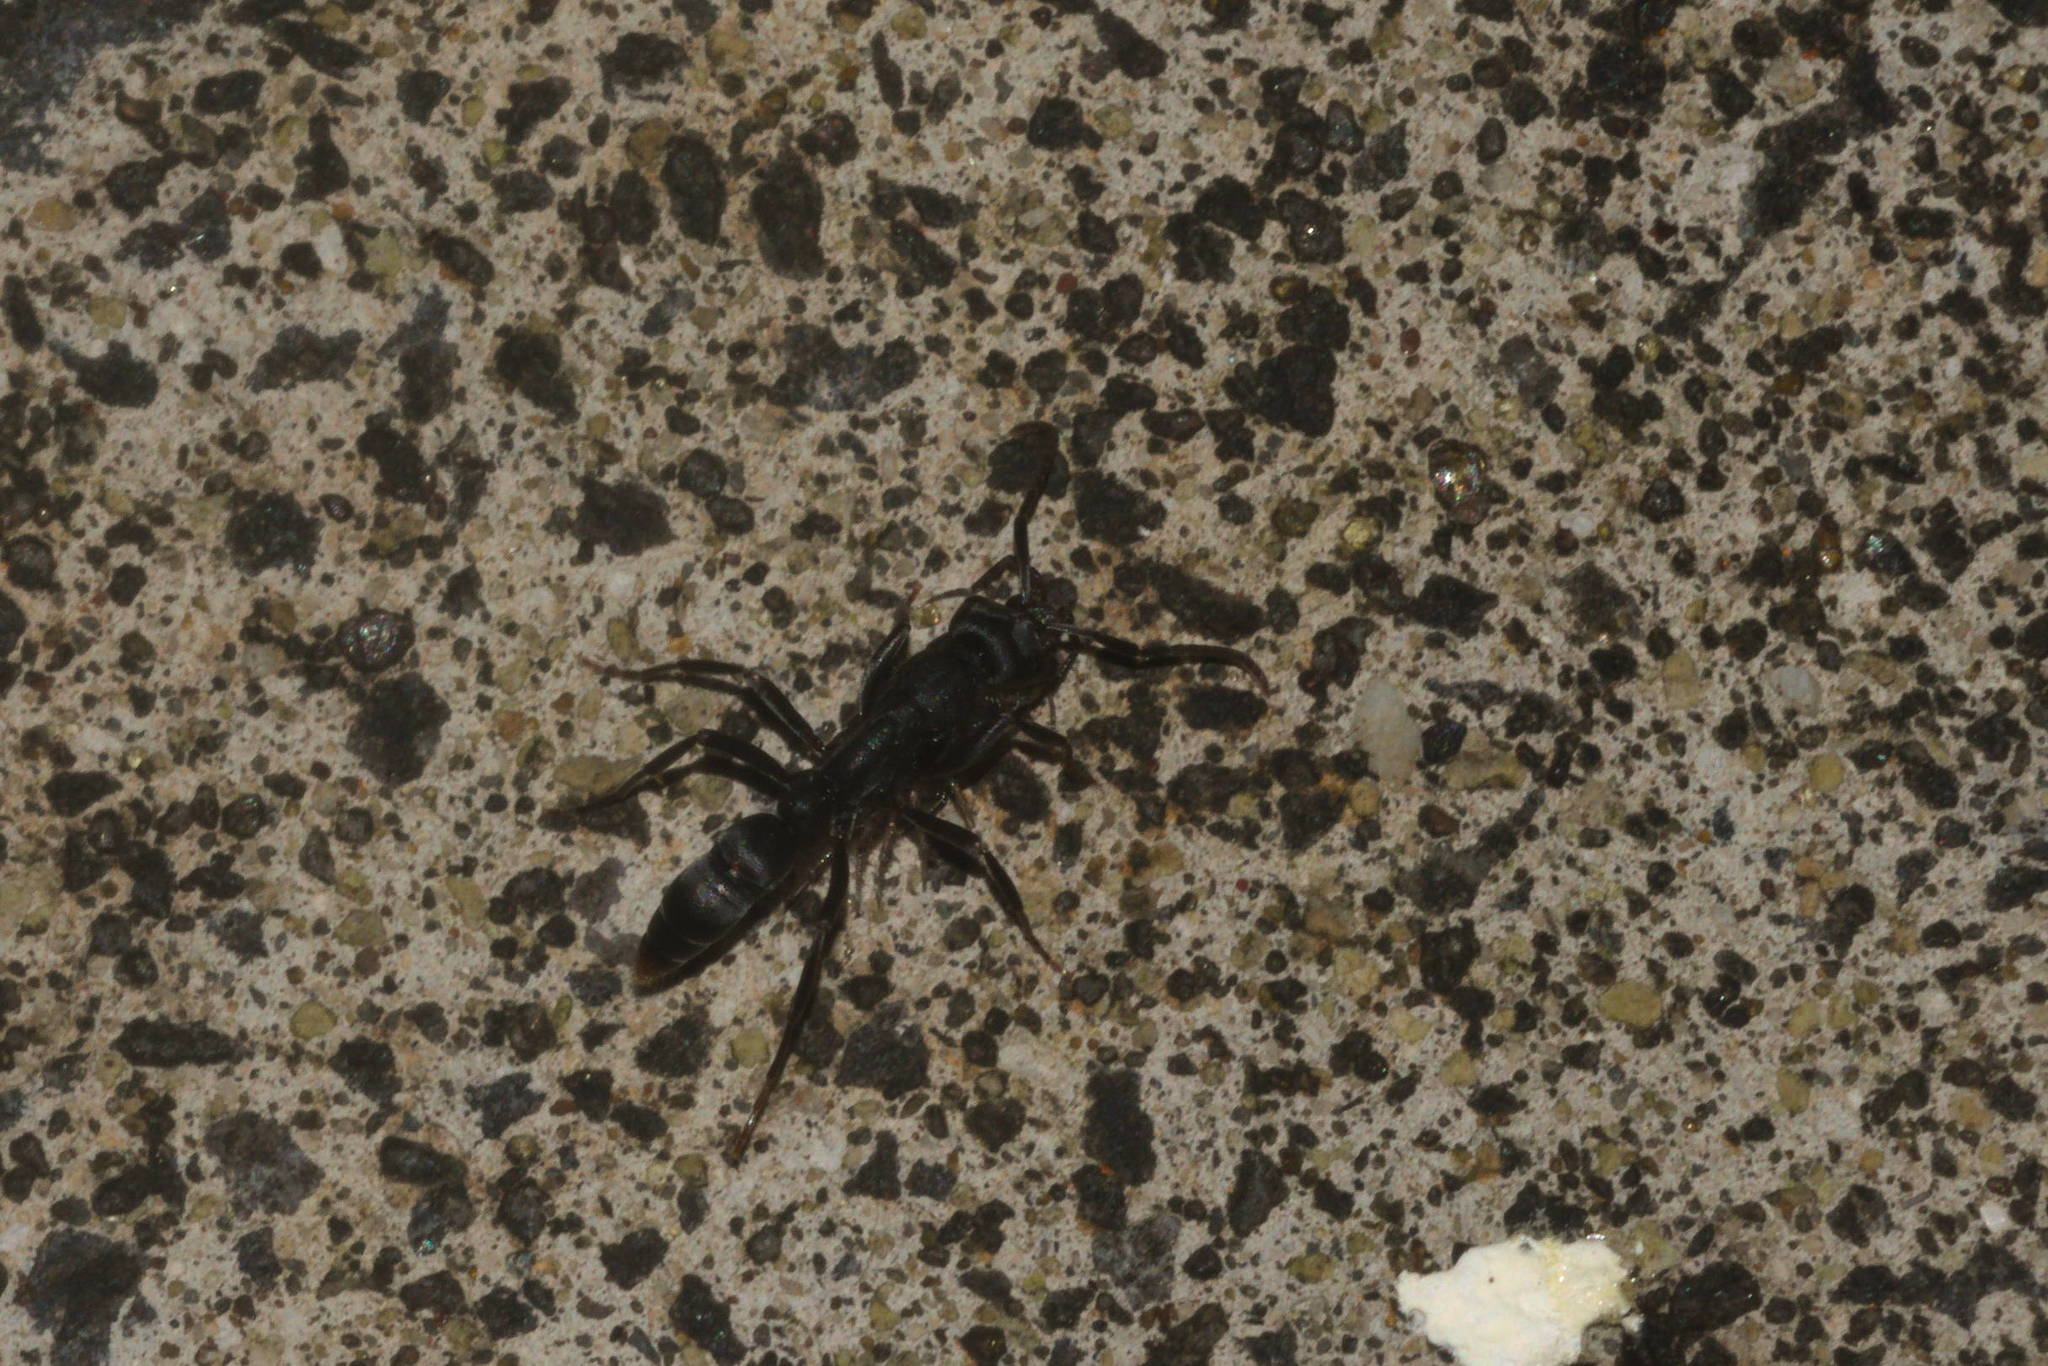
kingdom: Animalia
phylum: Arthropoda
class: Insecta
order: Hymenoptera
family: Formicidae
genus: Leptogenys
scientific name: Leptogenys falcigera
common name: Ant
